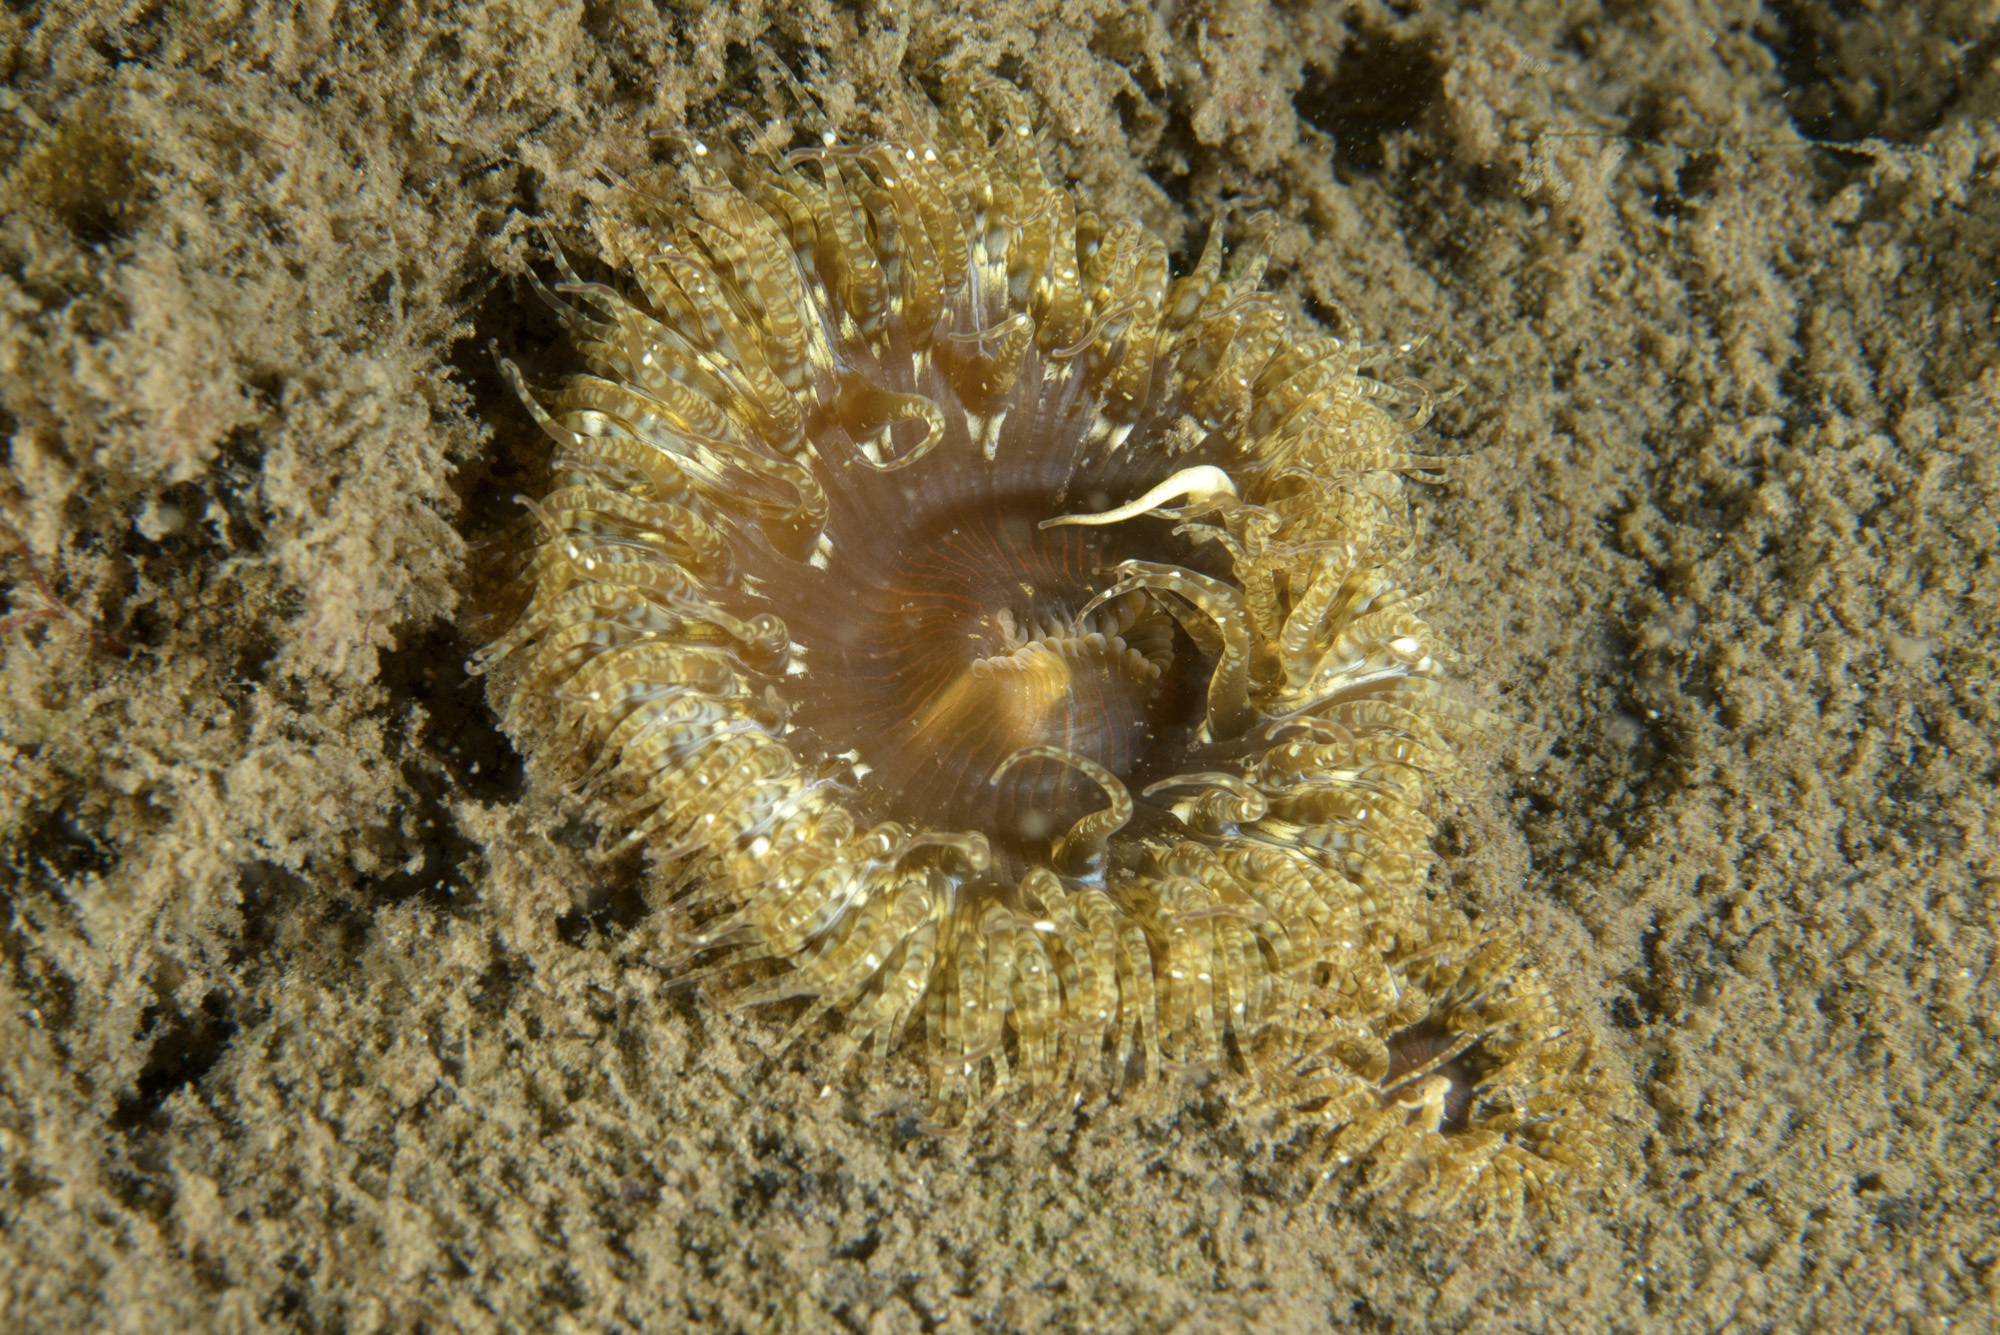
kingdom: Animalia
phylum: Cnidaria
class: Anthozoa
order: Actiniaria
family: Sagartiidae
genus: Cereus
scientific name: Cereus pedunculatus
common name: Daisy anemone
